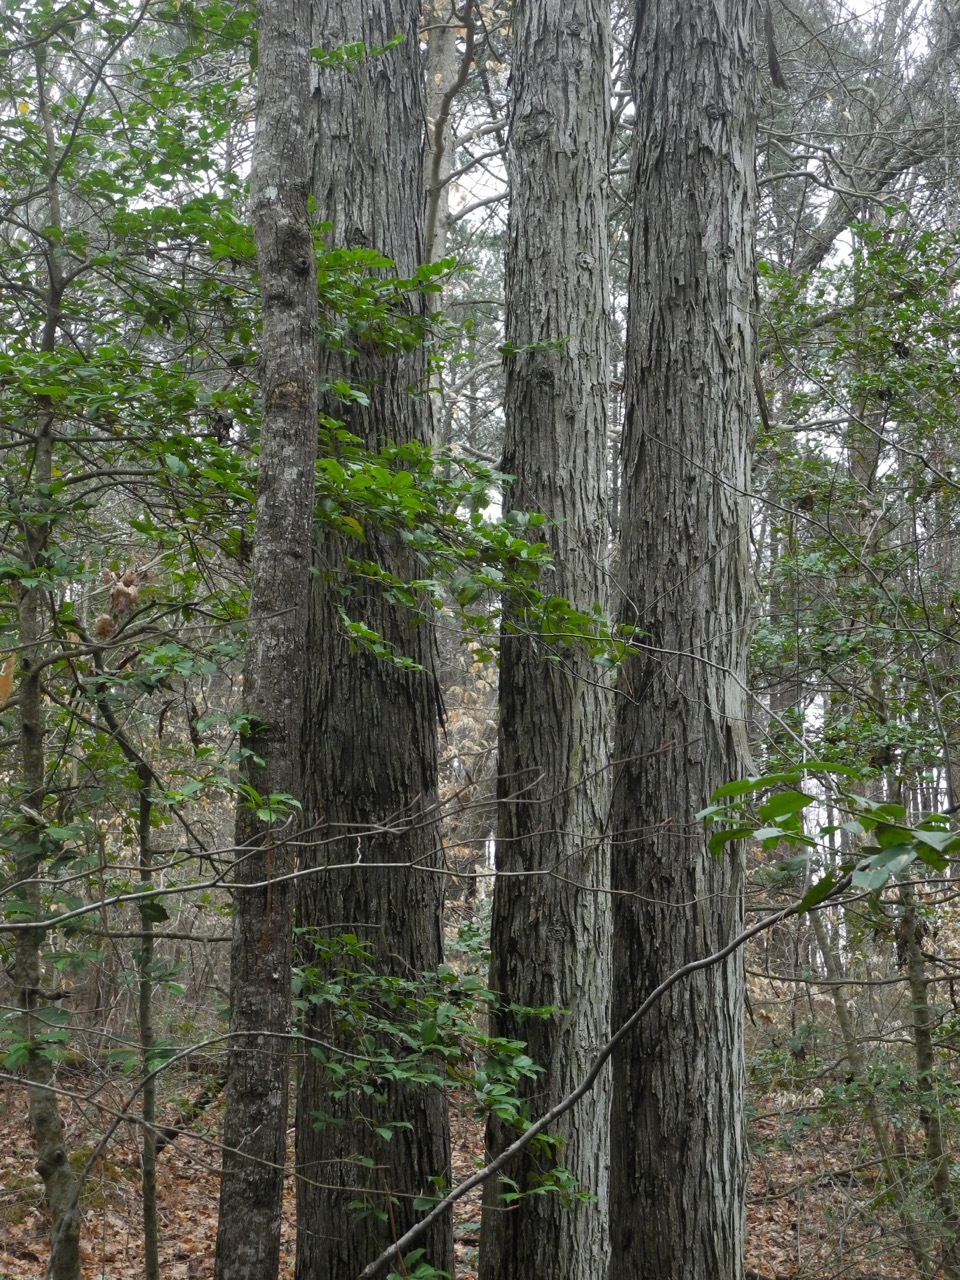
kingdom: Plantae
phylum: Tracheophyta
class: Magnoliopsida
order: Fagales
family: Juglandaceae
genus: Carya
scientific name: Carya ovata
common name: Shagbark hickory
